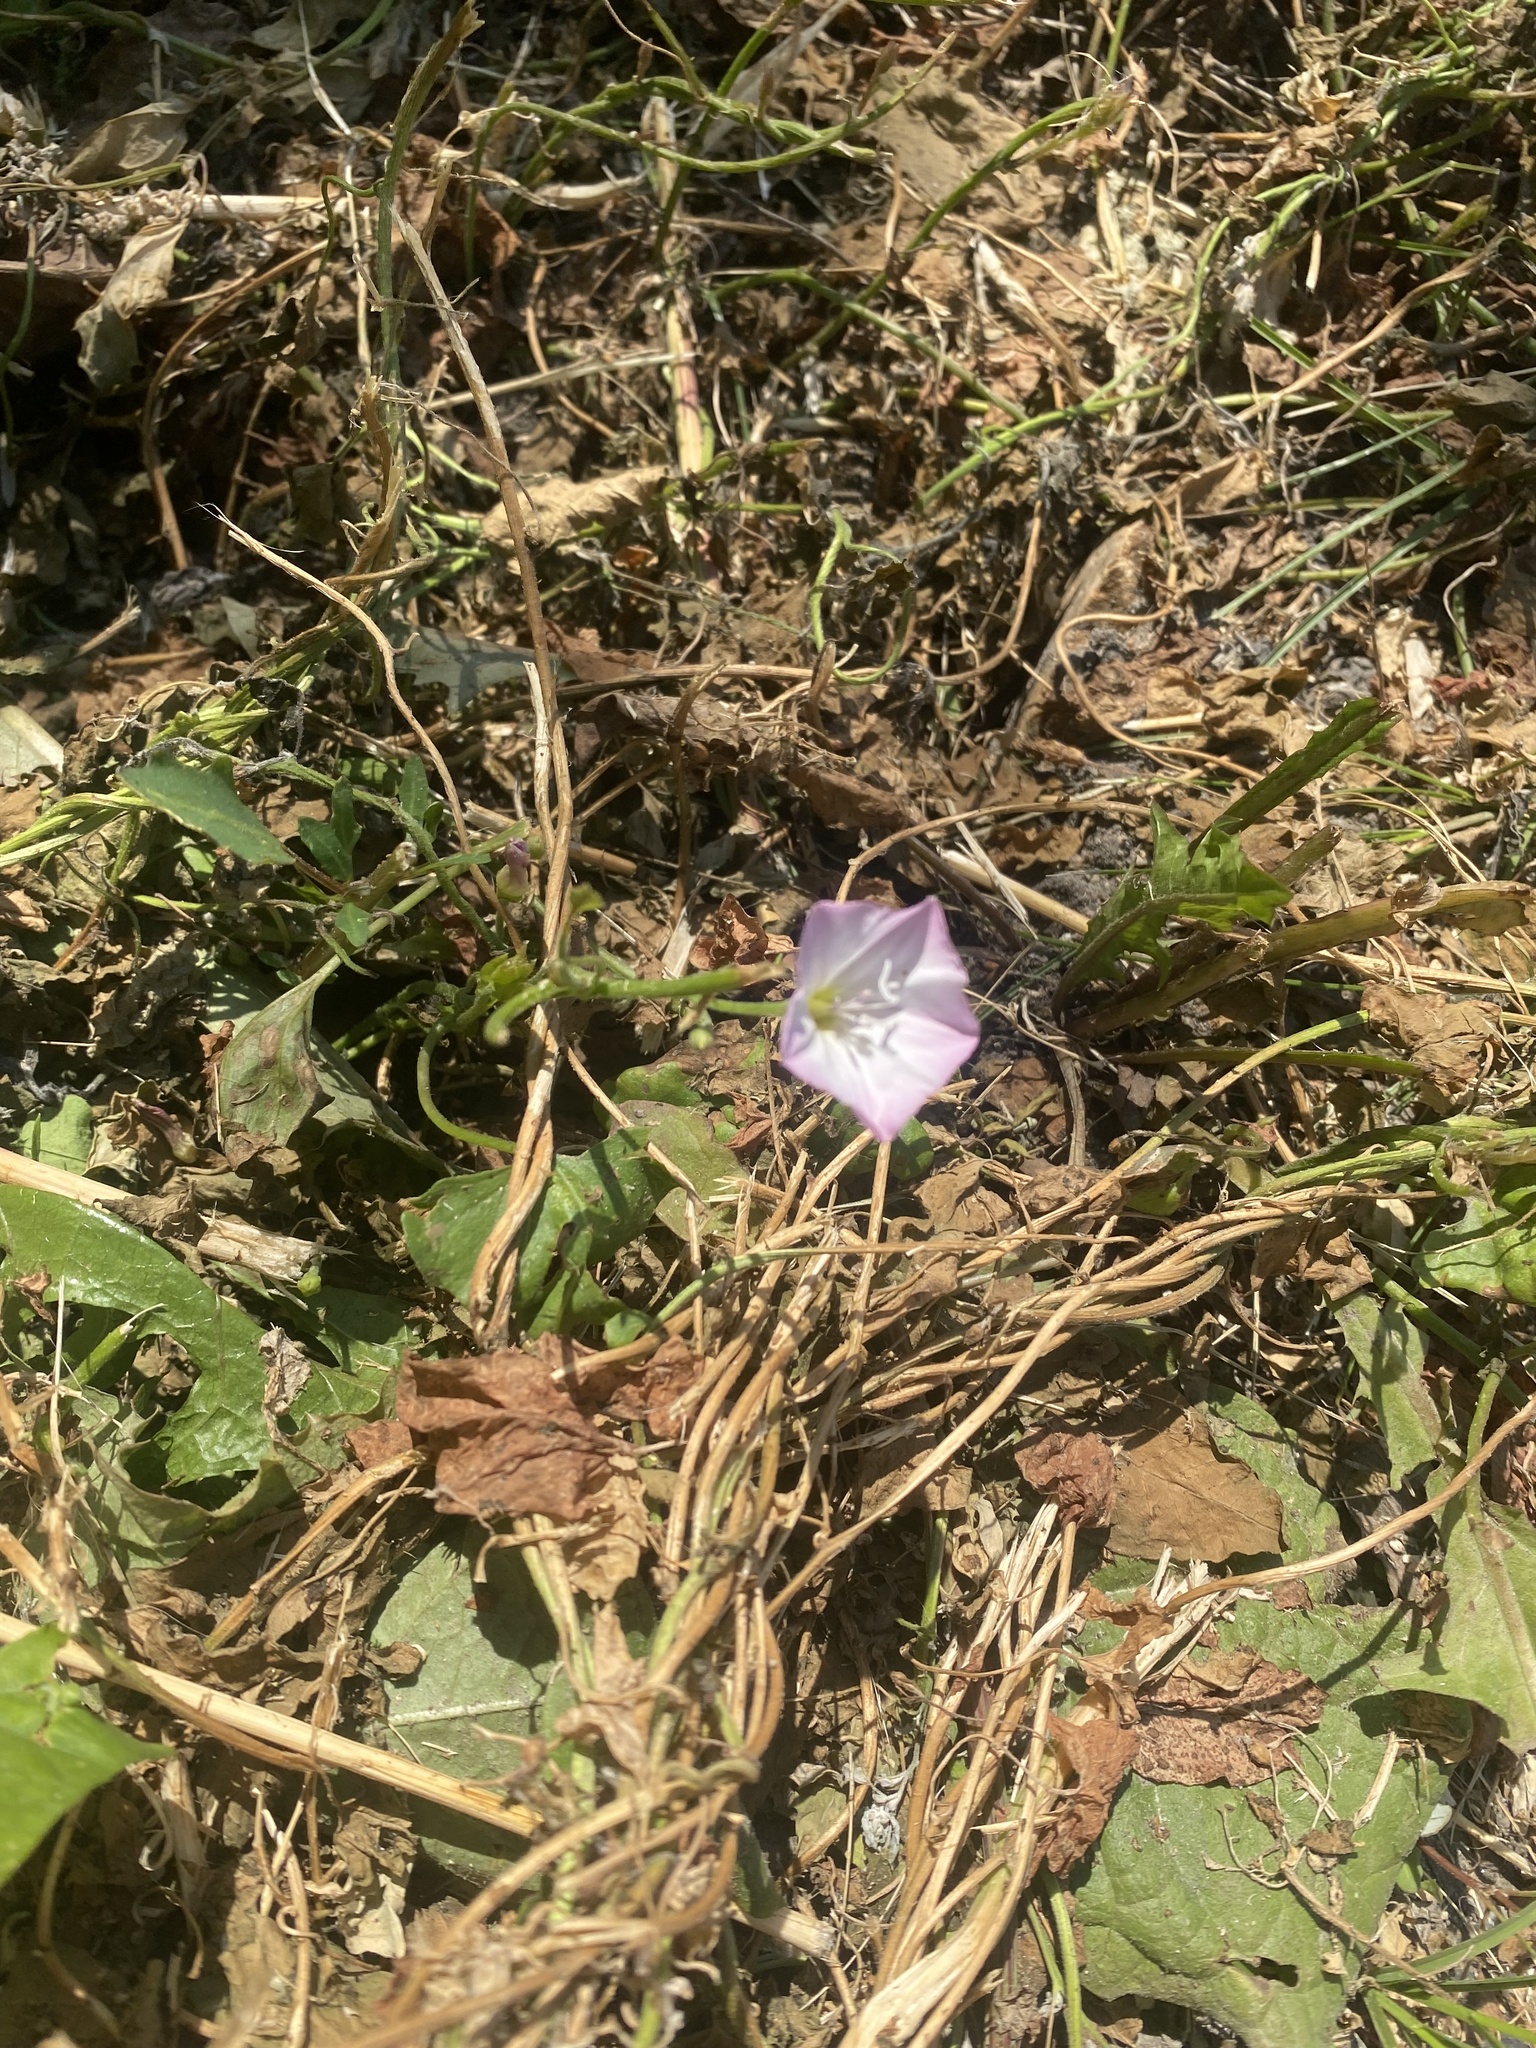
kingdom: Plantae
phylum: Tracheophyta
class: Magnoliopsida
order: Solanales
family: Convolvulaceae
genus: Convolvulus
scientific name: Convolvulus arvensis
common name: Field bindweed
